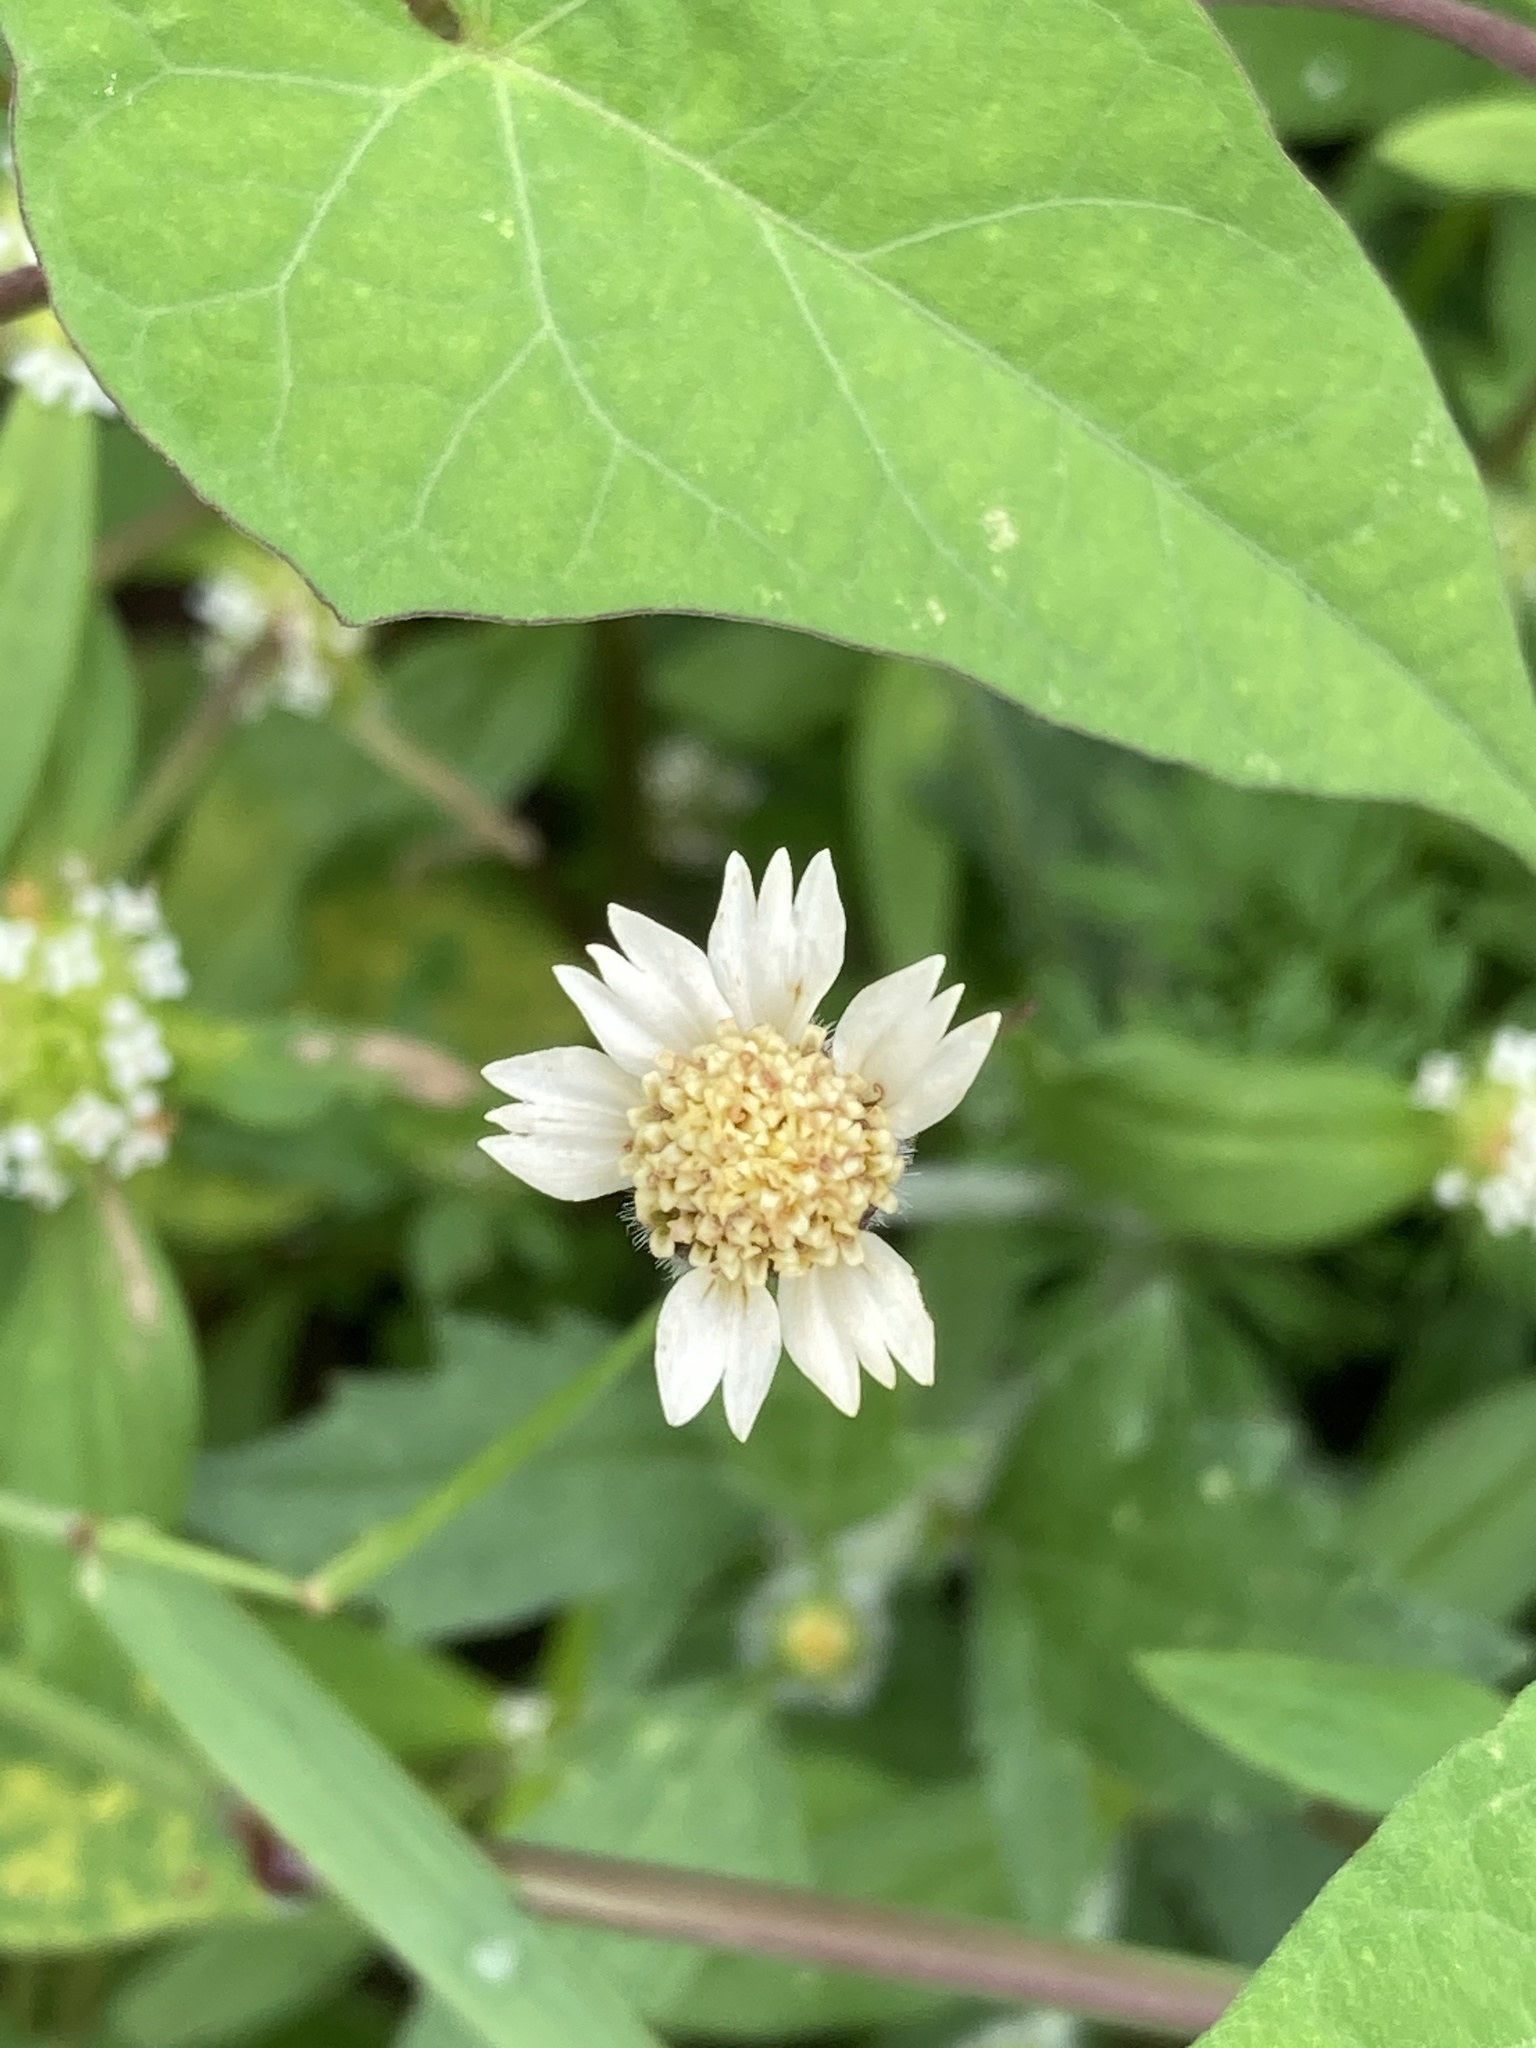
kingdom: Plantae
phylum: Tracheophyta
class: Magnoliopsida
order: Asterales
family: Asteraceae
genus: Tridax
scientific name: Tridax procumbens
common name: Coatbuttons
